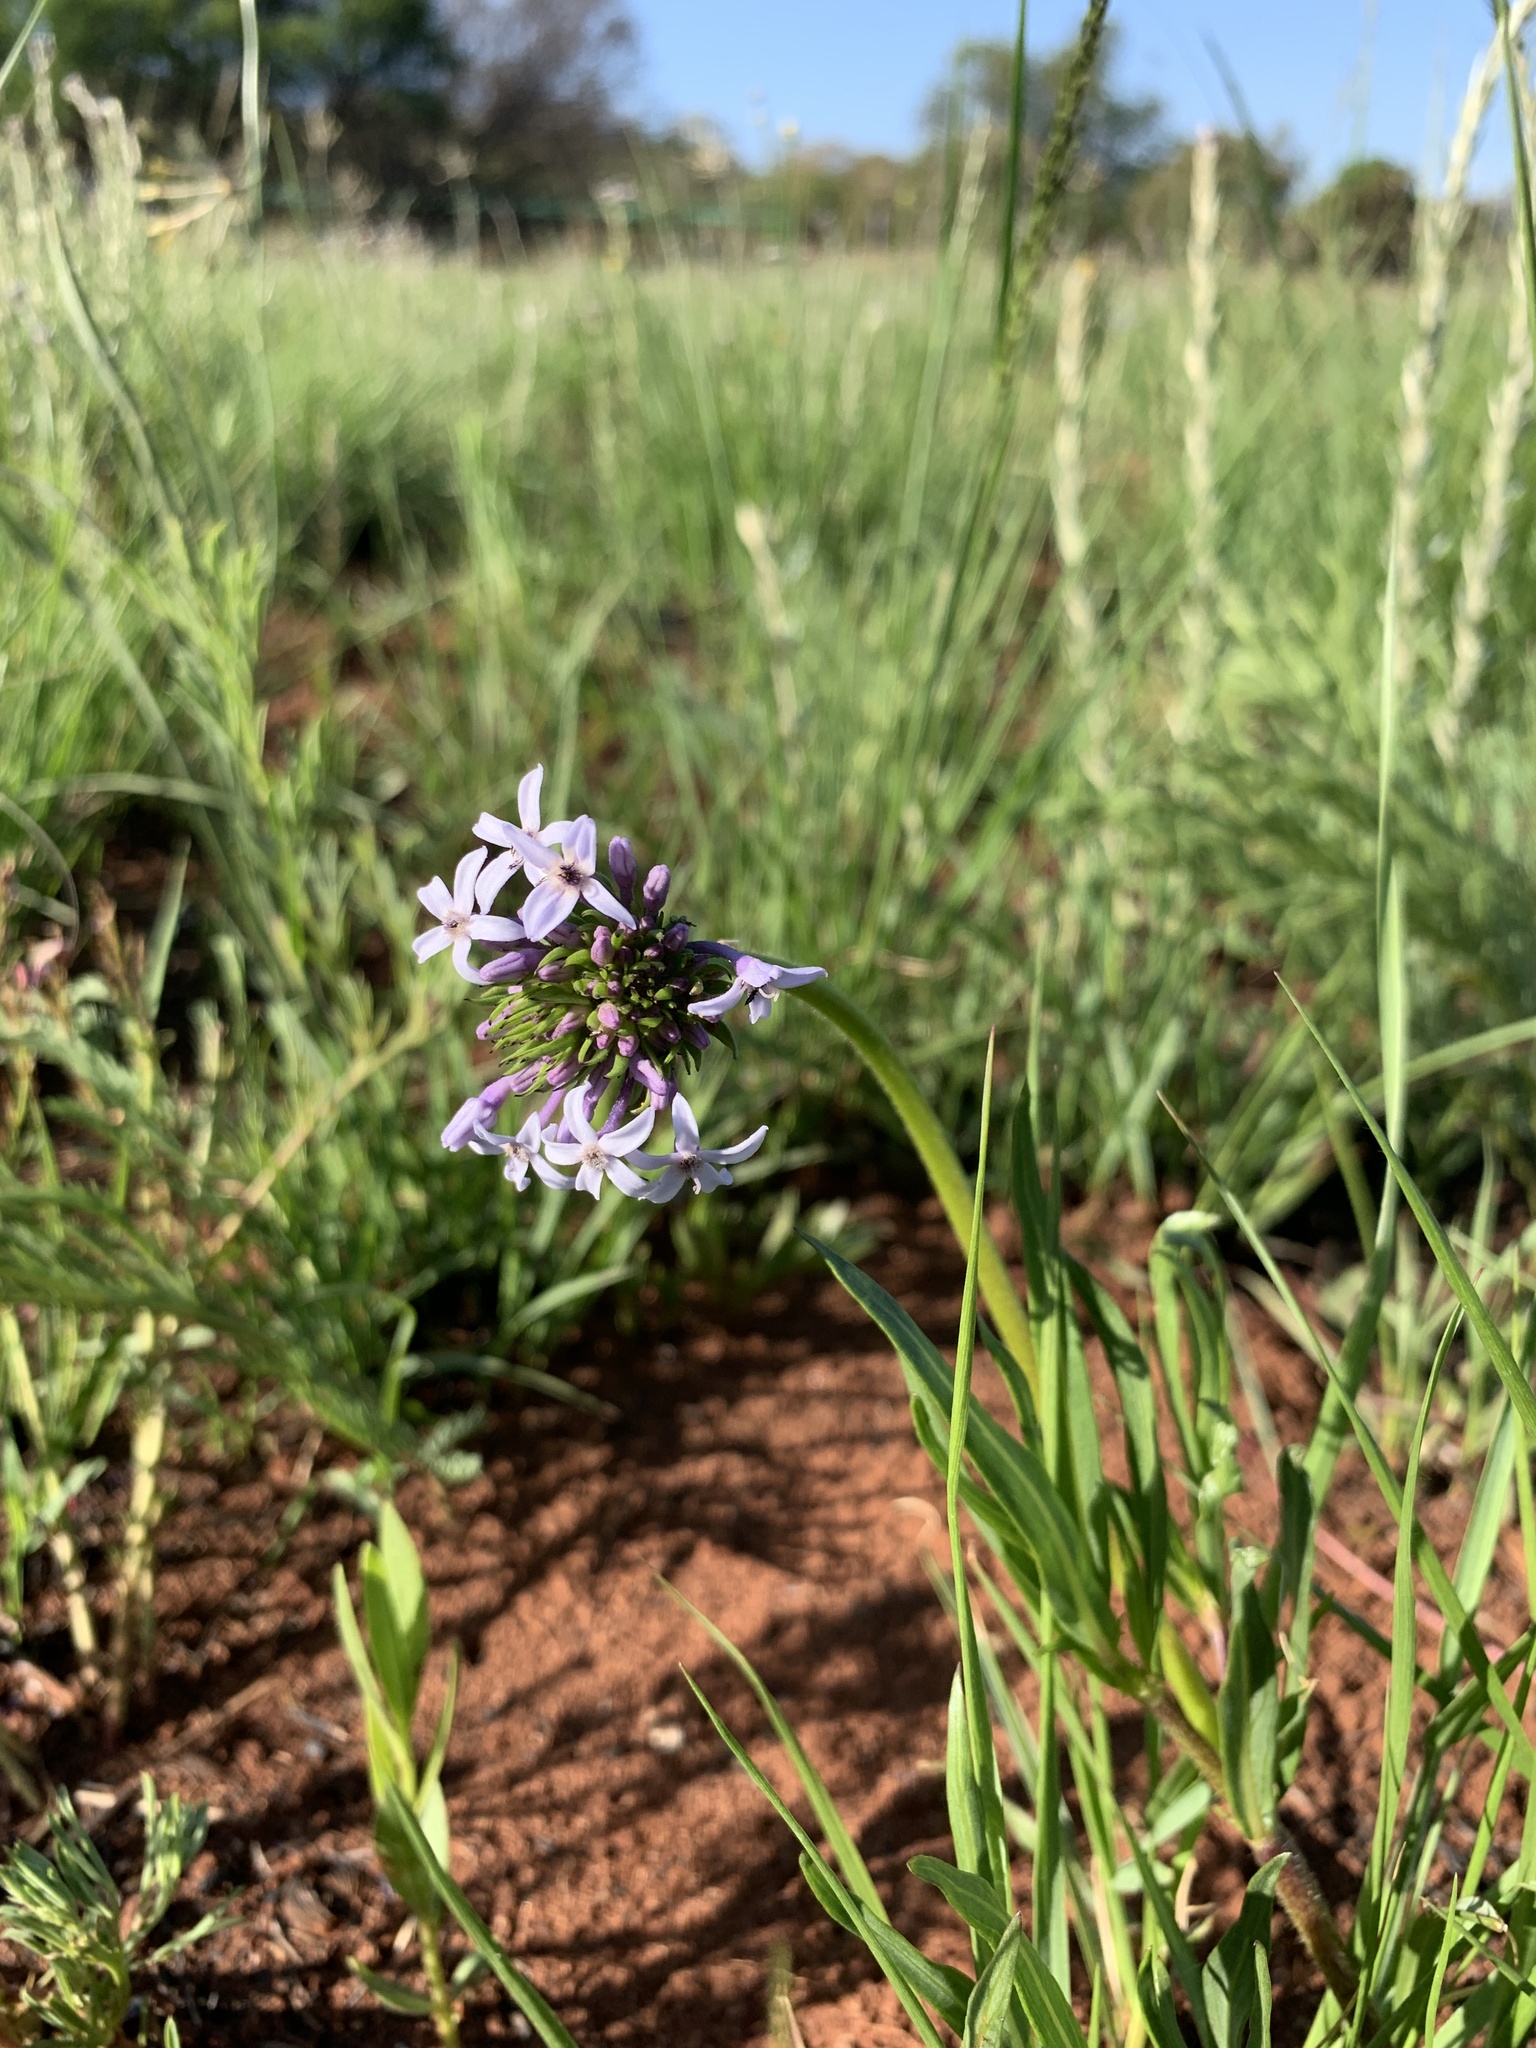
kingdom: Plantae
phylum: Tracheophyta
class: Magnoliopsida
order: Gentianales
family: Rubiaceae
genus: Pentanisia
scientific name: Pentanisia angustifolia
